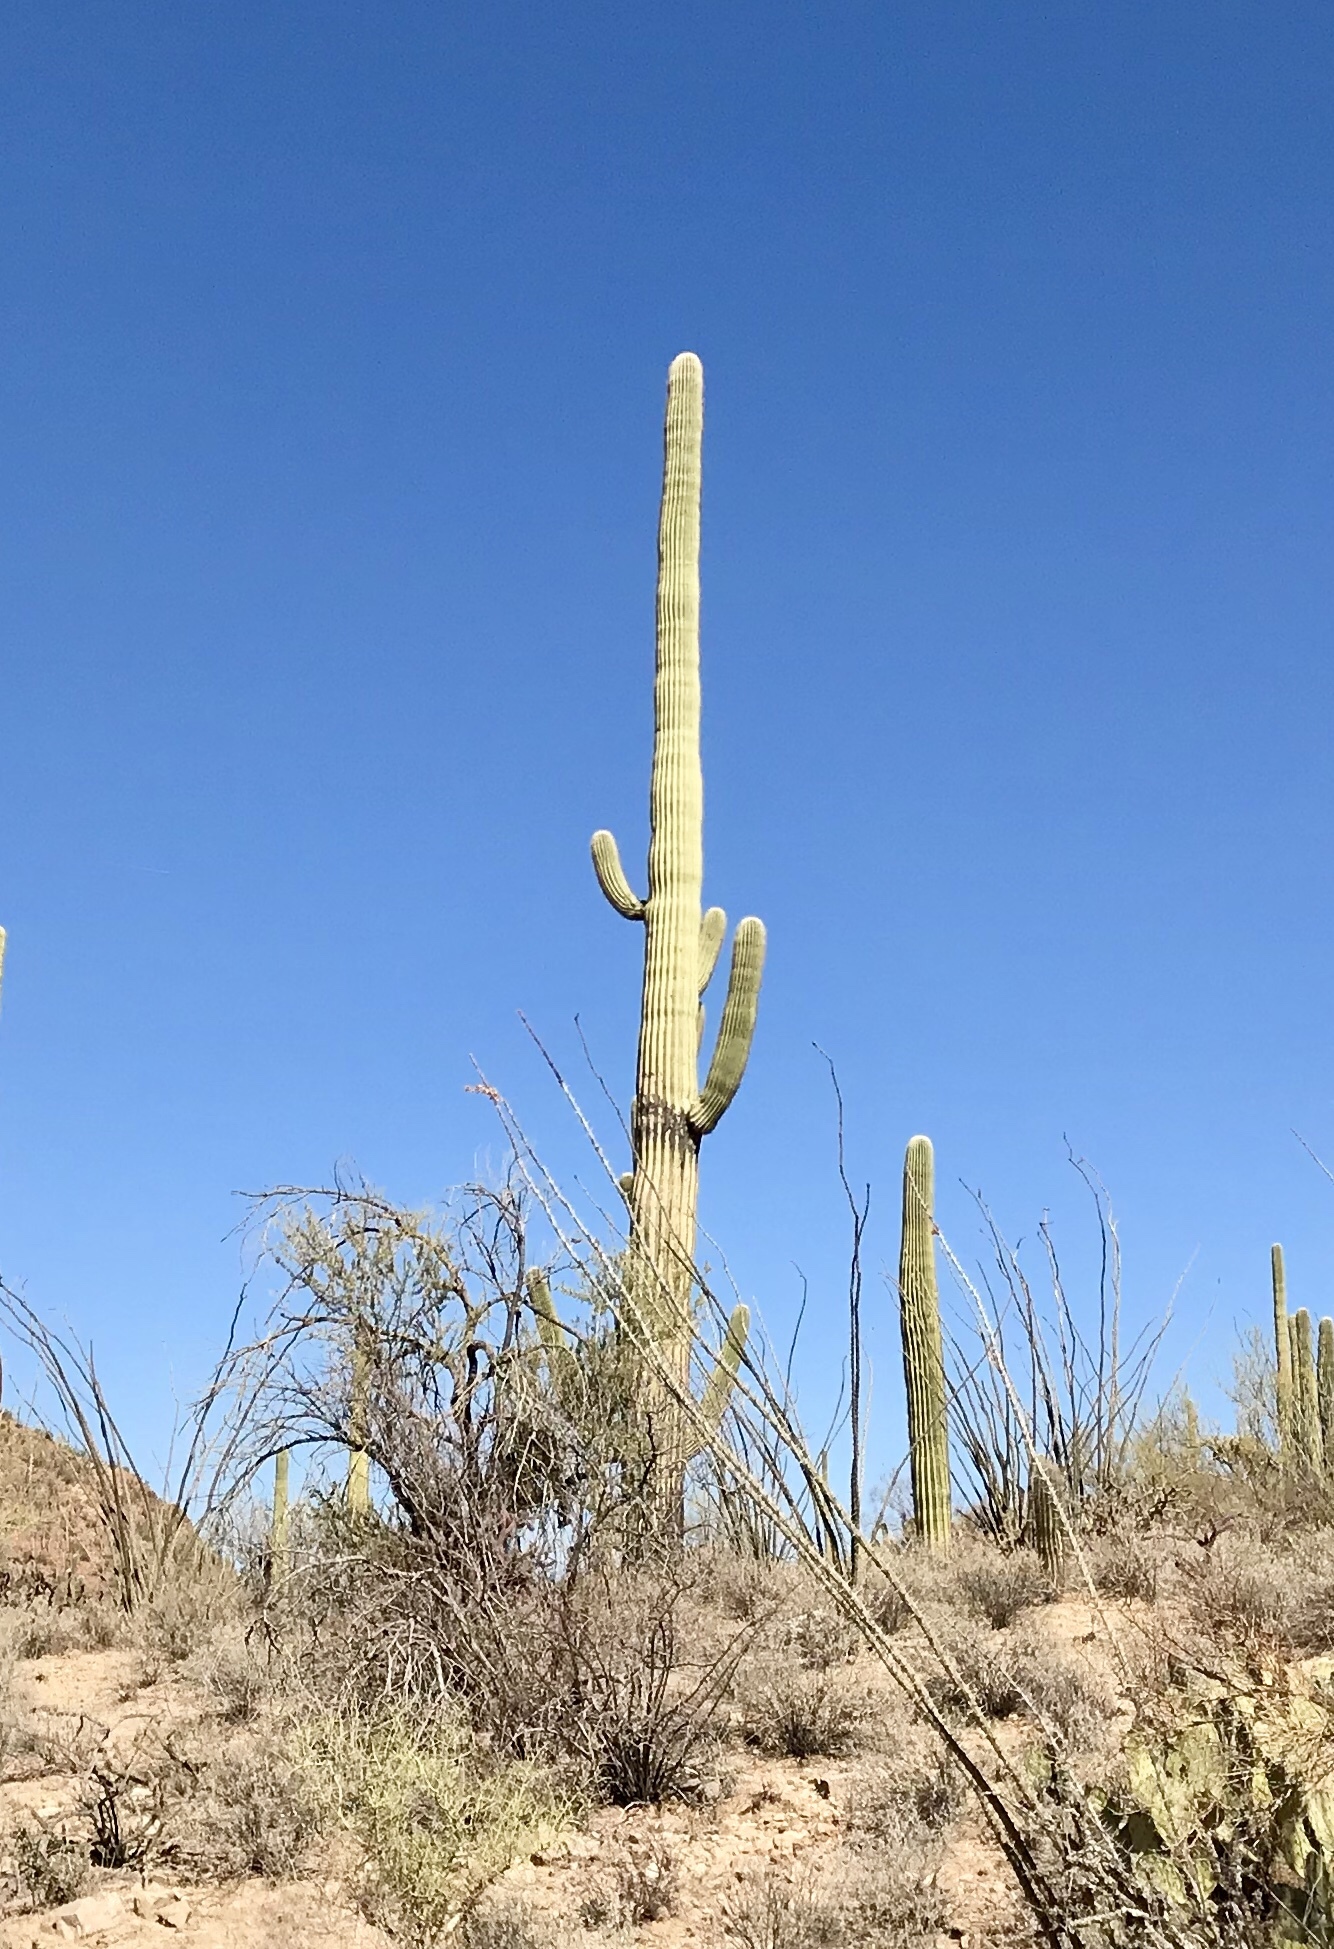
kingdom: Plantae
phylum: Tracheophyta
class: Magnoliopsida
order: Caryophyllales
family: Cactaceae
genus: Carnegiea
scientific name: Carnegiea gigantea
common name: Saguaro
